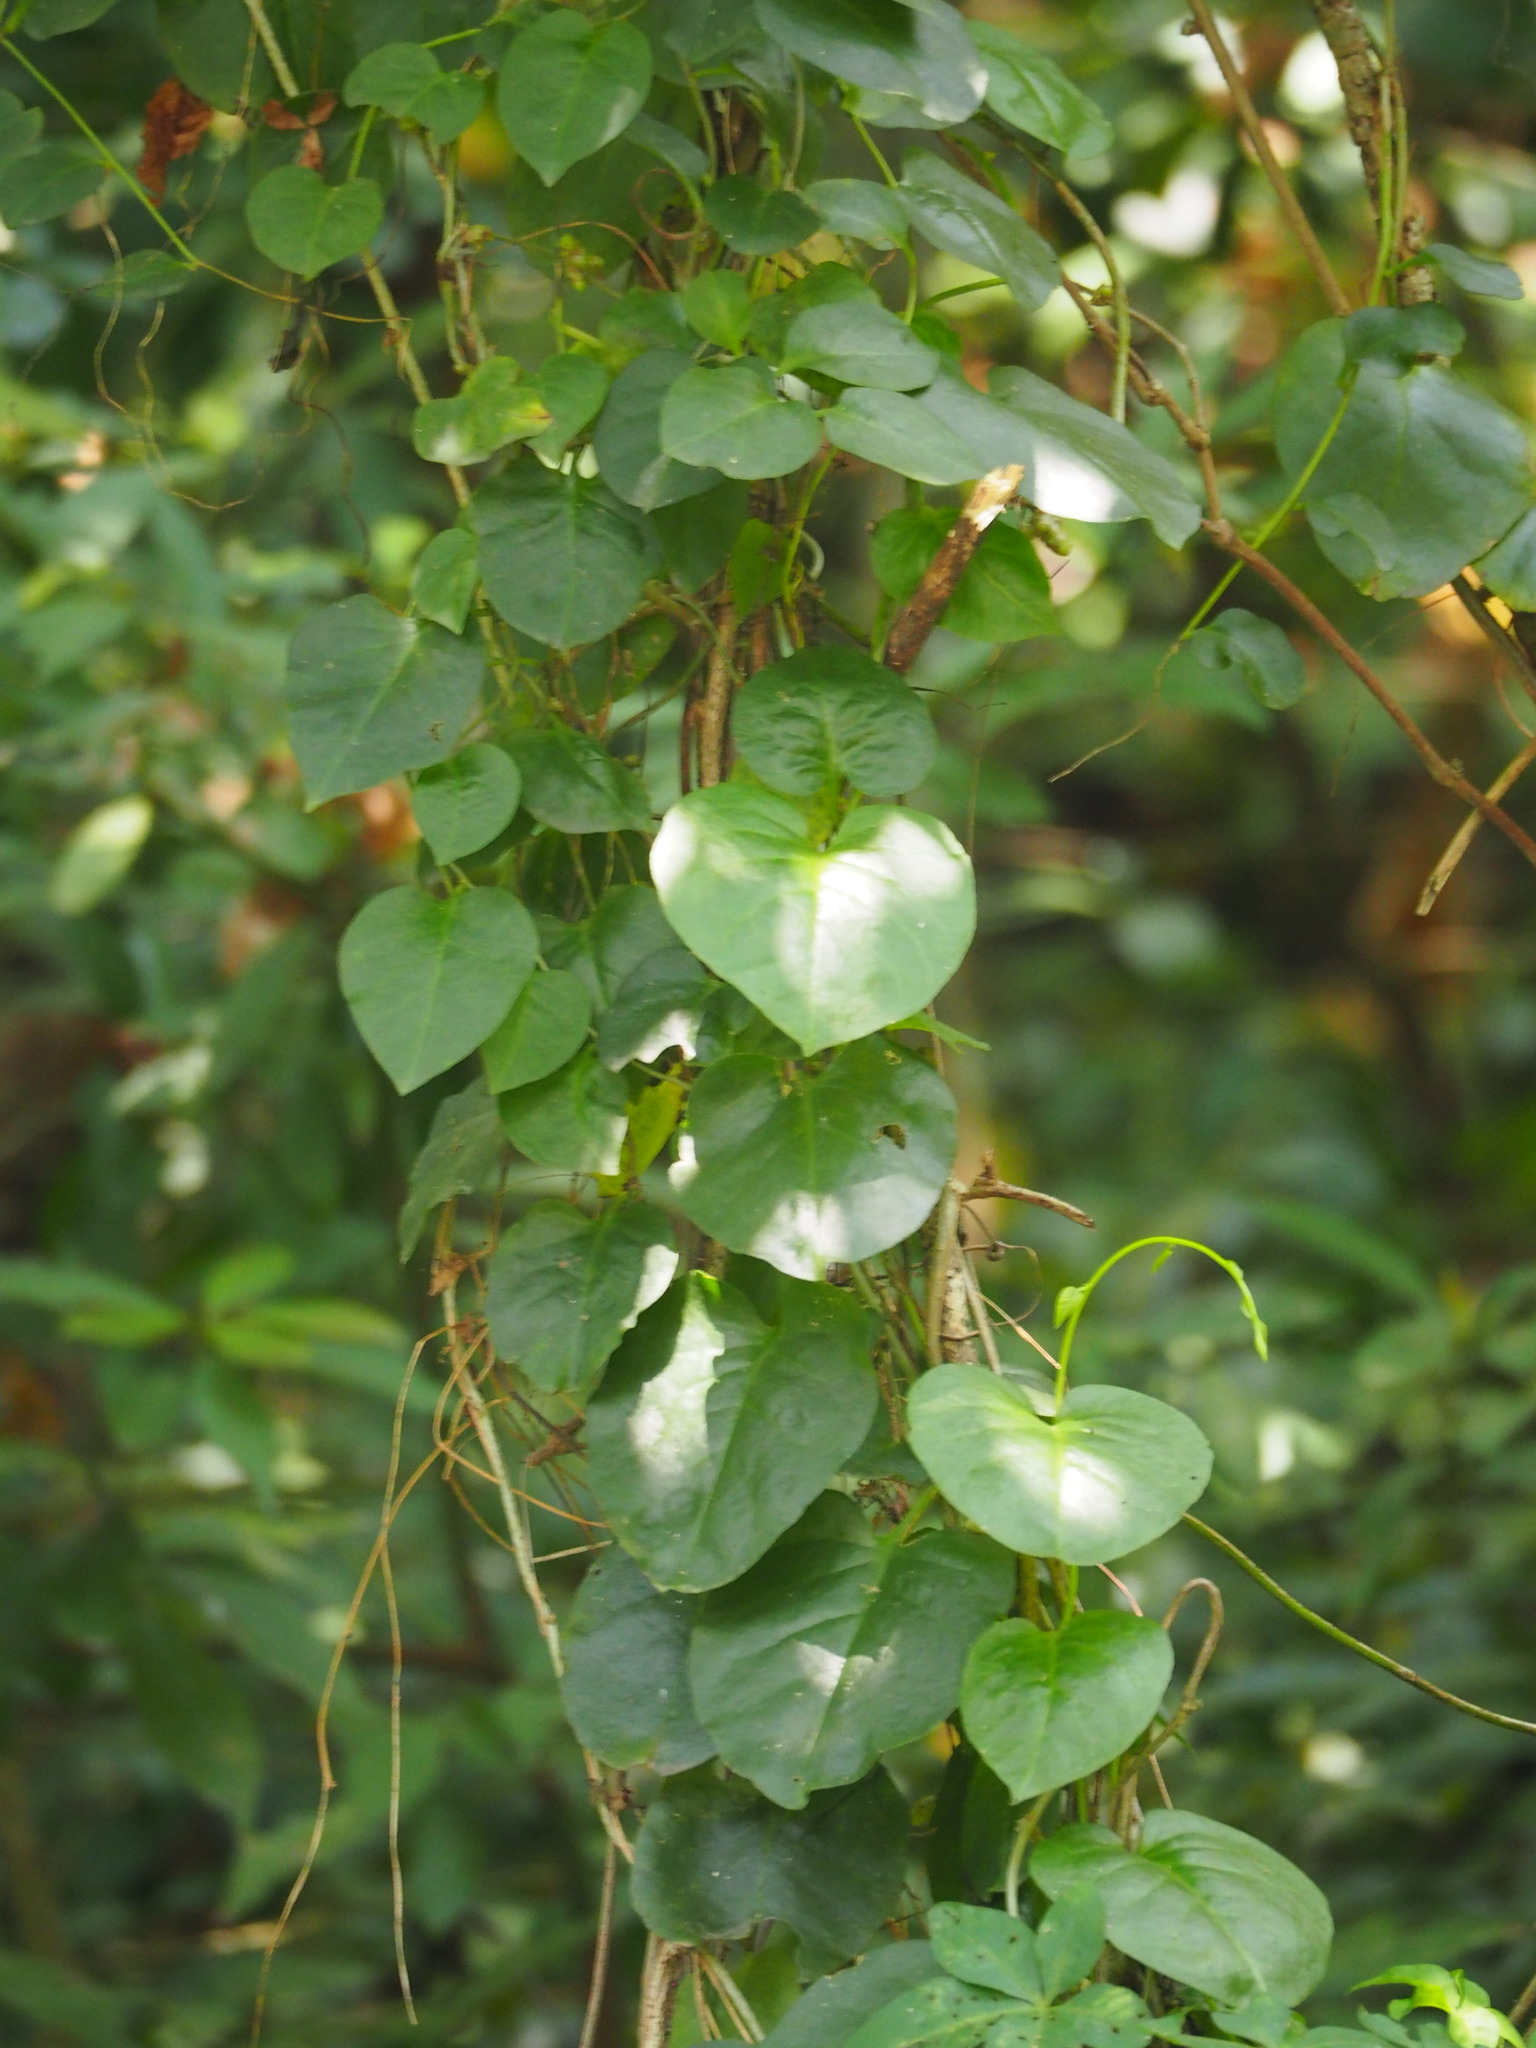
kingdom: Plantae
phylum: Tracheophyta
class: Magnoliopsida
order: Caryophyllales
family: Basellaceae
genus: Anredera
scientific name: Anredera cordifolia
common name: Heartleaf madeiravine
